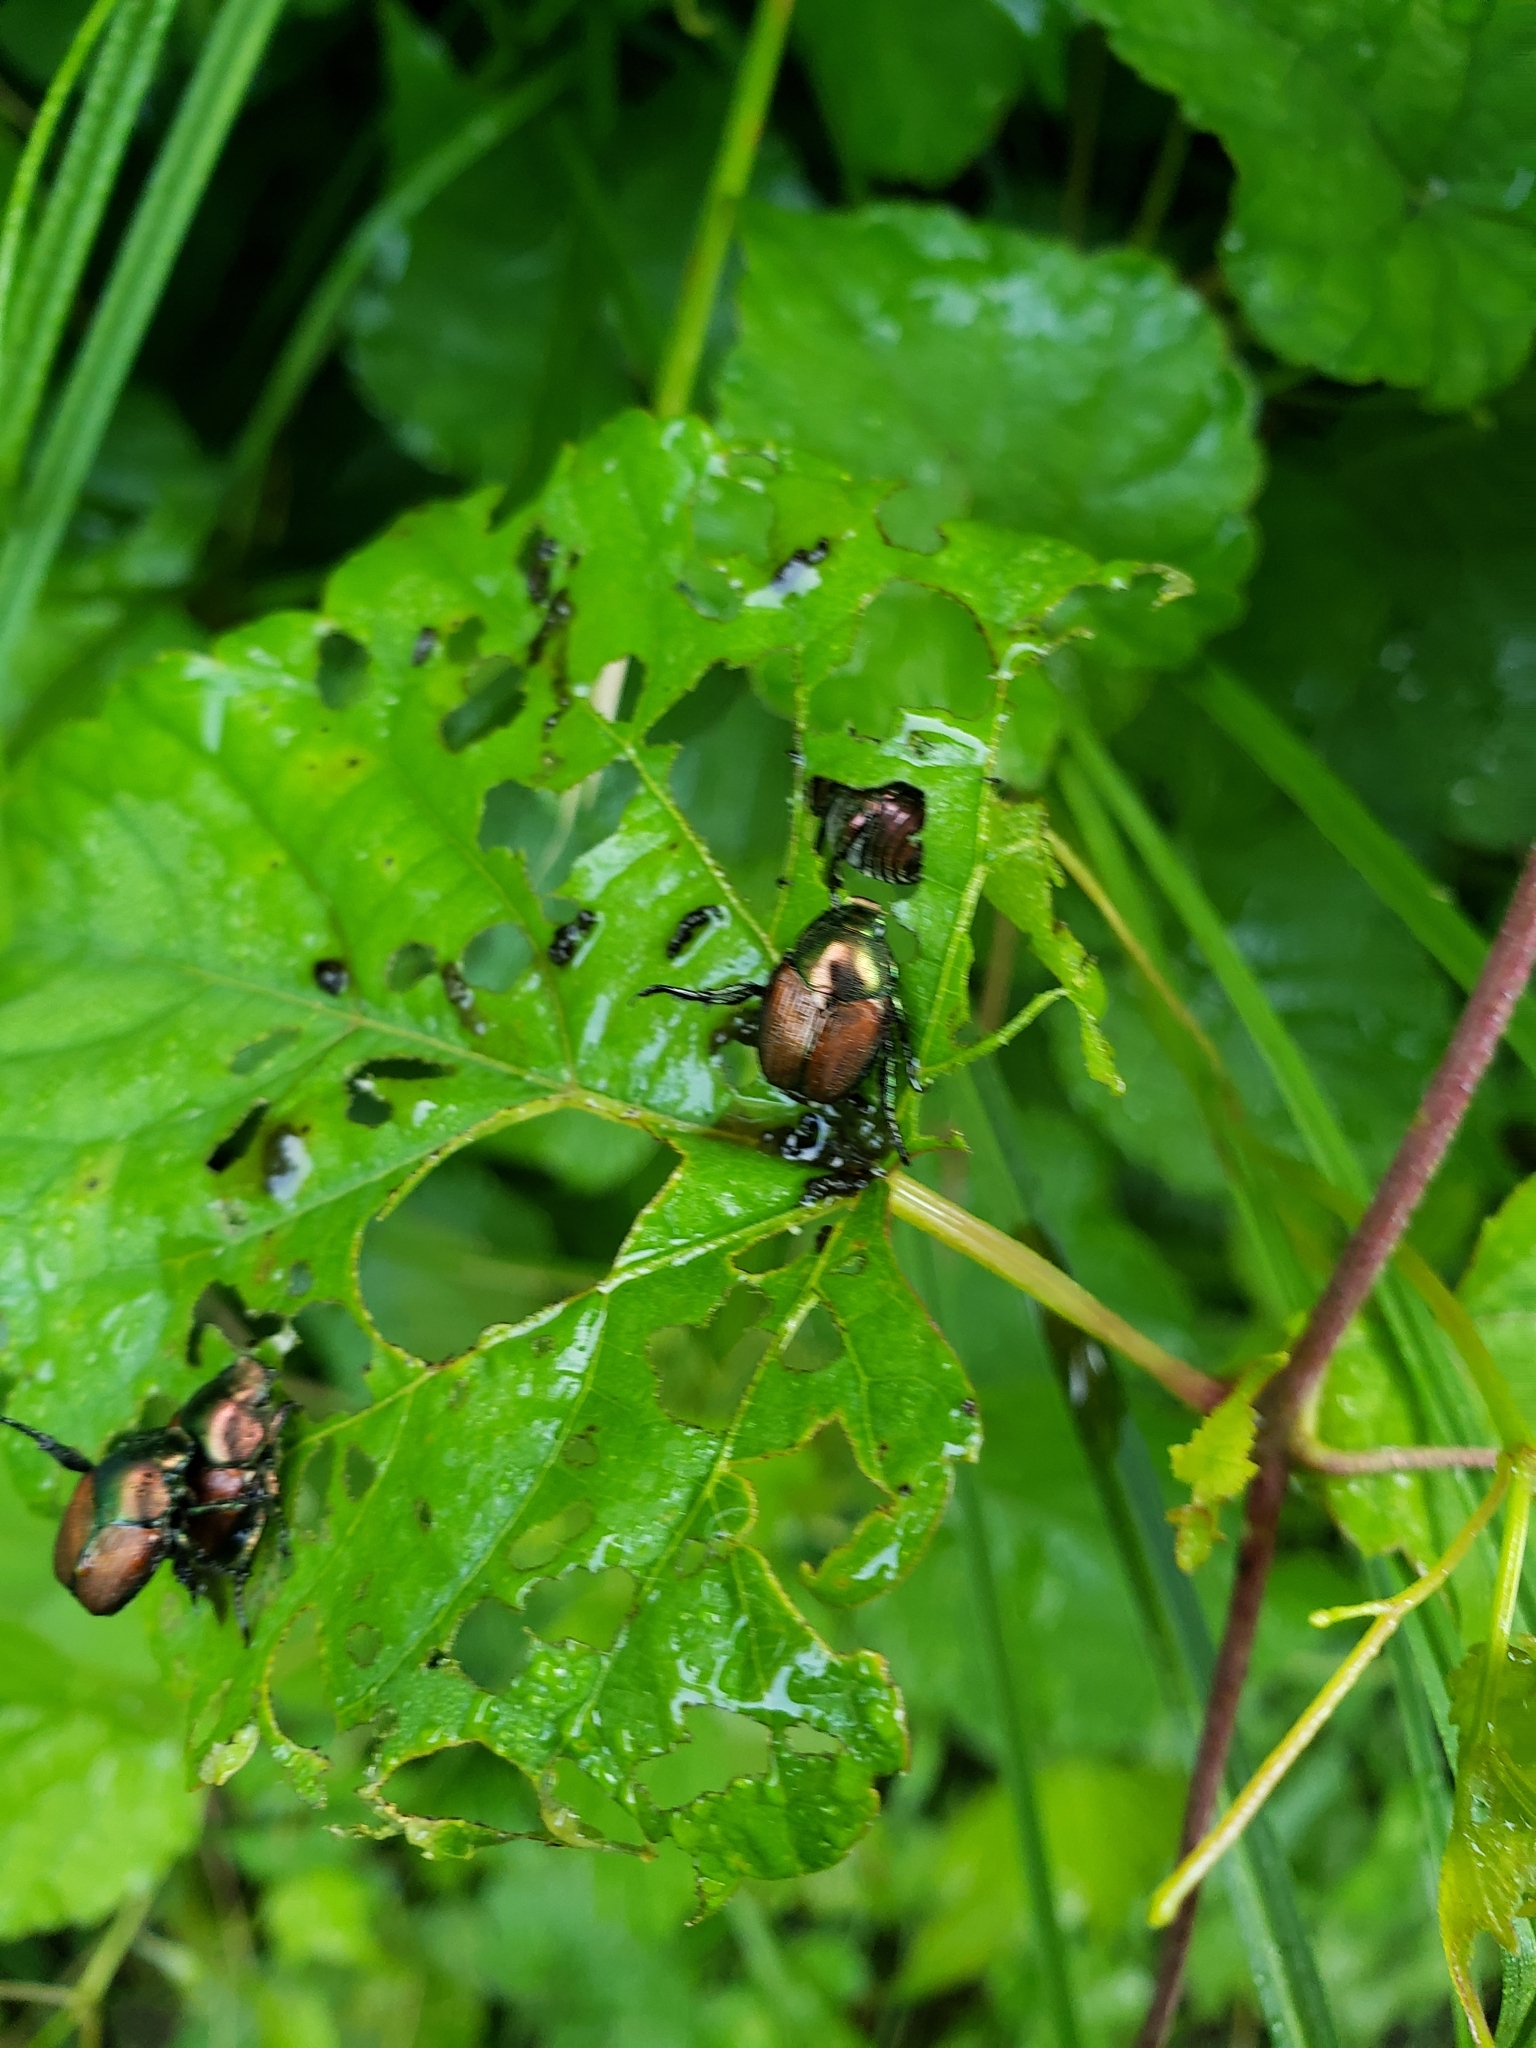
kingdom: Animalia
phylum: Arthropoda
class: Insecta
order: Coleoptera
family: Scarabaeidae
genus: Popillia
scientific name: Popillia japonica
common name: Japanese beetle
